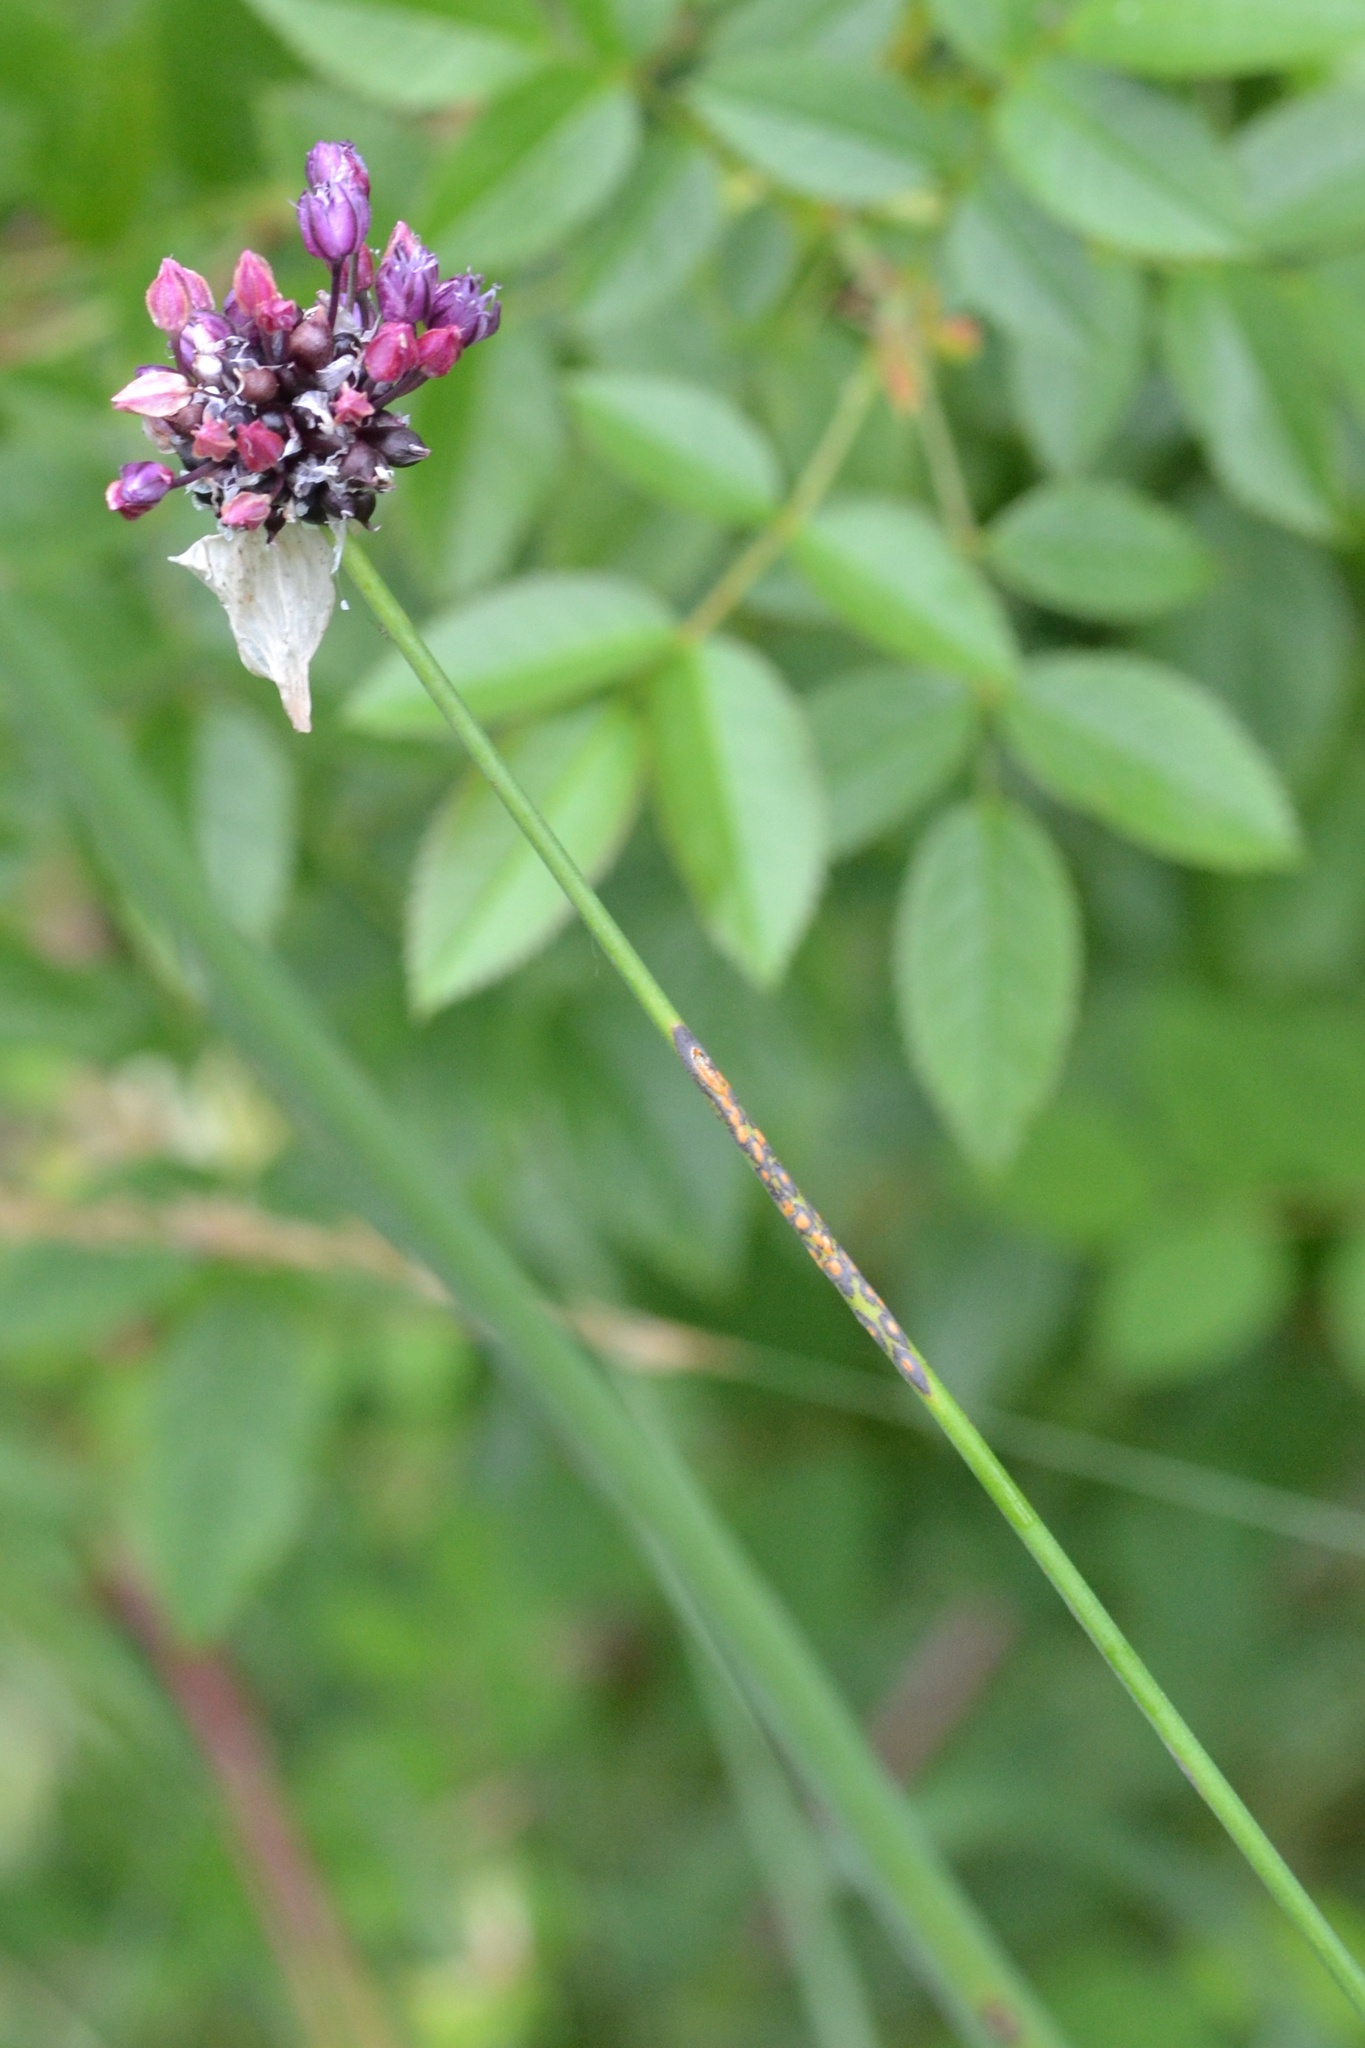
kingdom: Plantae
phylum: Tracheophyta
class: Liliopsida
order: Asparagales
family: Amaryllidaceae
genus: Allium
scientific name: Allium scorodoprasum
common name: Sand leek
